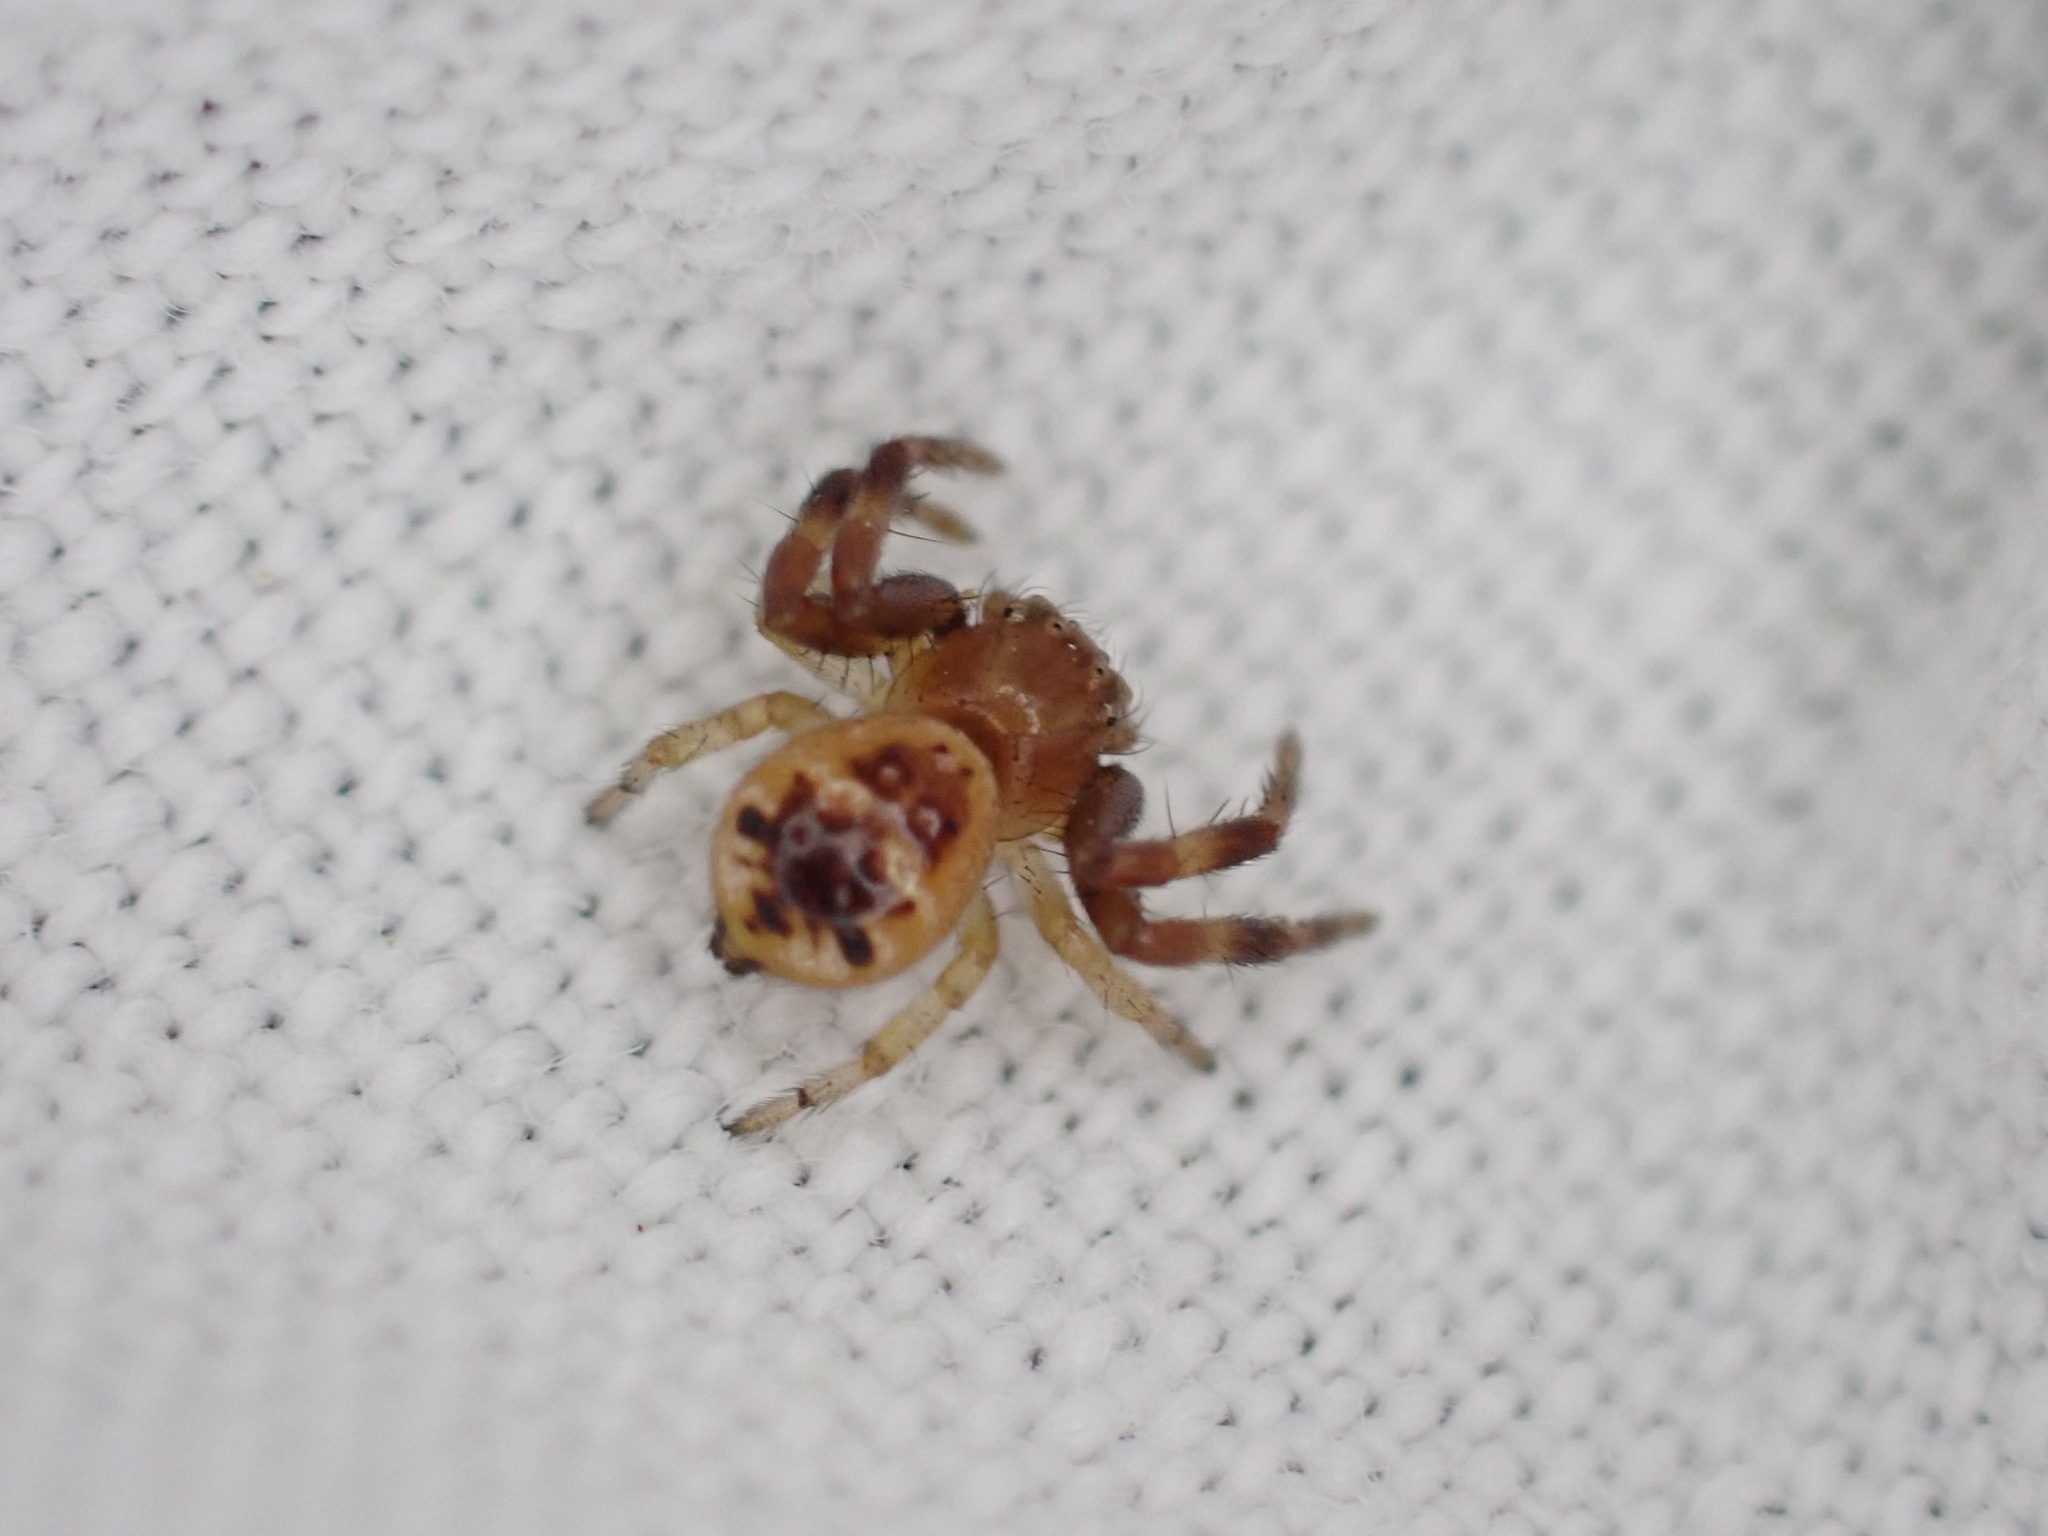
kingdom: Animalia
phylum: Arthropoda
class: Arachnida
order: Araneae
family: Thomisidae
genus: Synema
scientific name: Synema globosum
